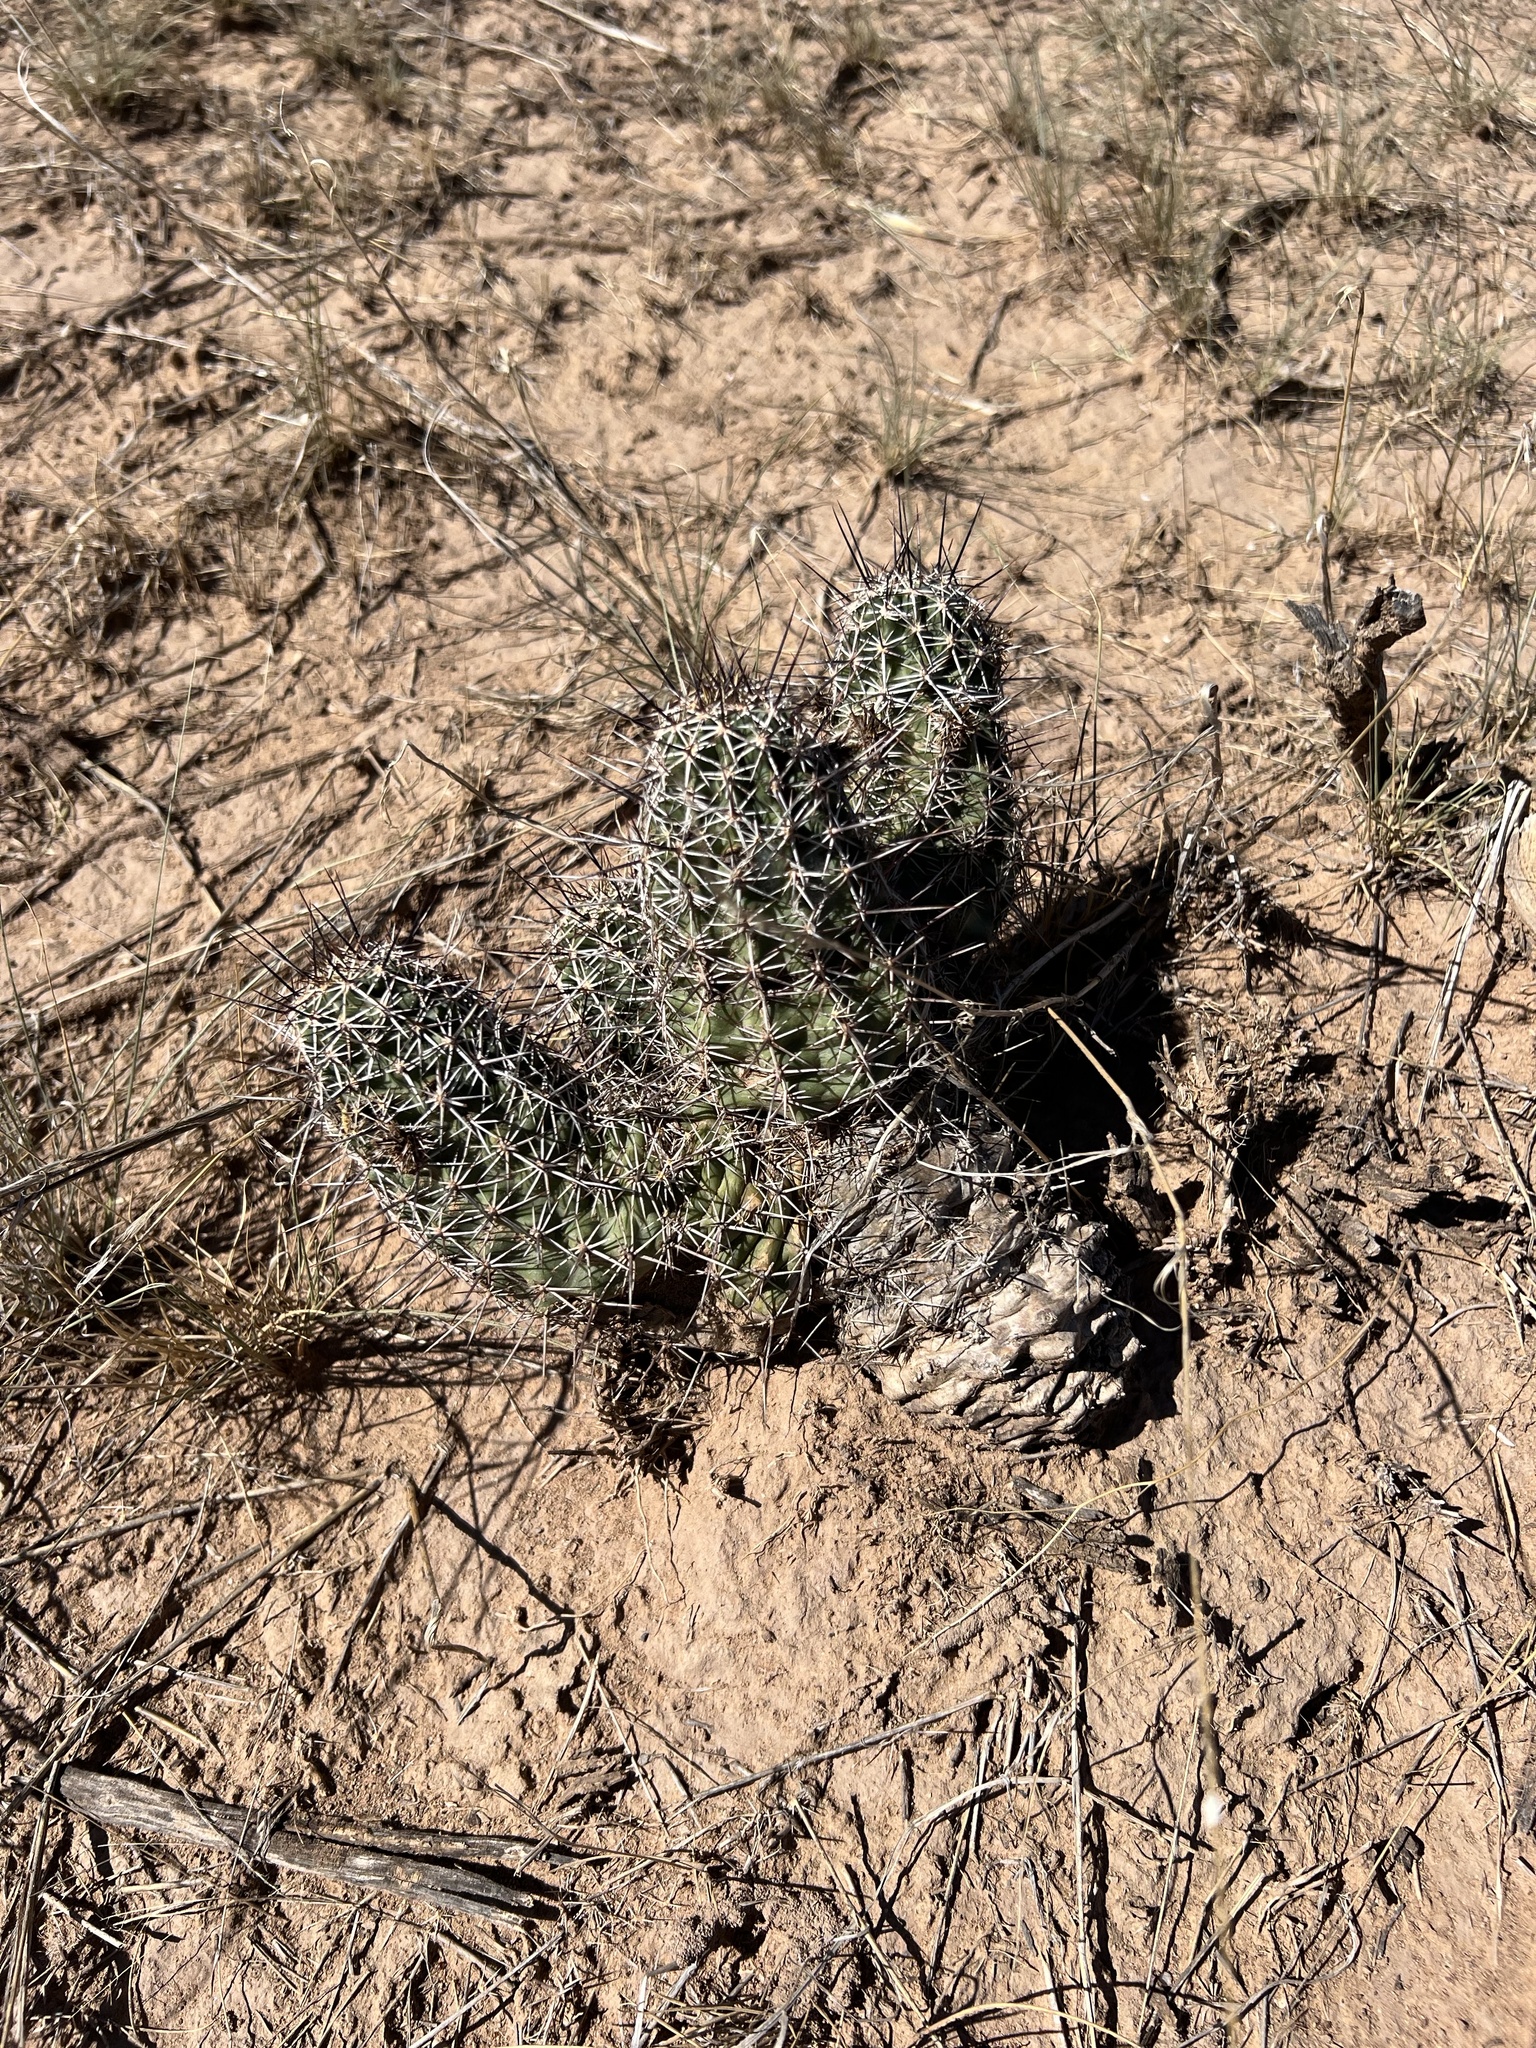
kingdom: Plantae
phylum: Tracheophyta
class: Magnoliopsida
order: Caryophyllales
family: Cactaceae
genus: Echinocereus
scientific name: Echinocereus fendleri
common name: Fendler's hedgehog cactus
